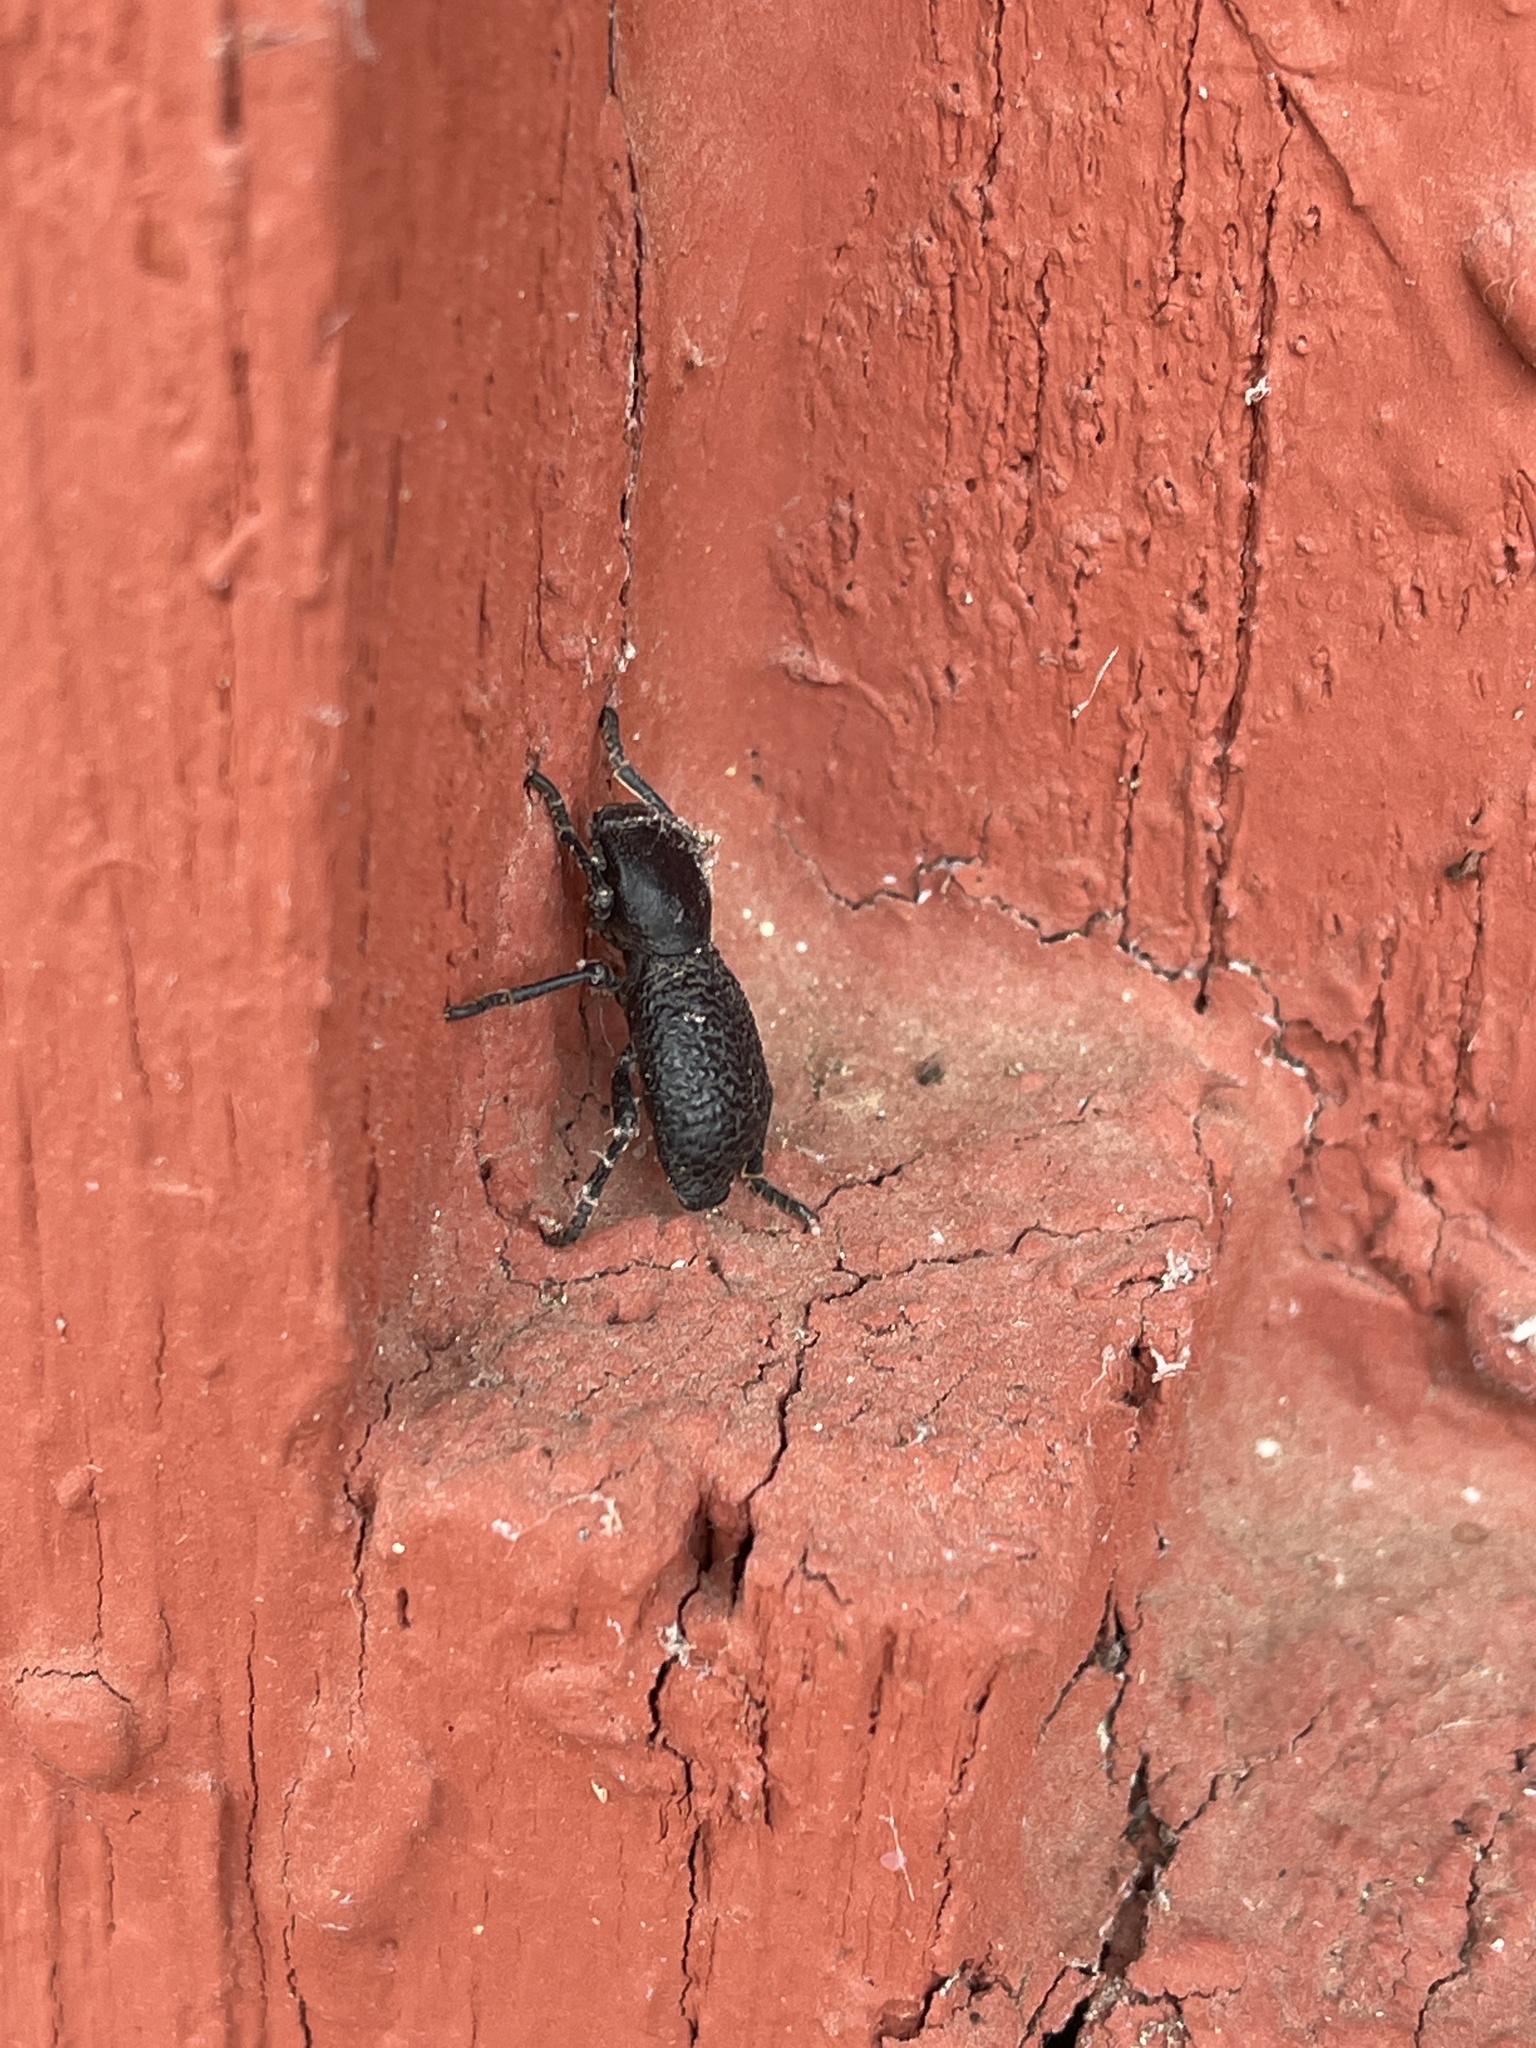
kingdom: Animalia
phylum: Arthropoda
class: Insecta
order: Coleoptera
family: Zopheridae
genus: Zopherus
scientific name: Zopherus concolor
